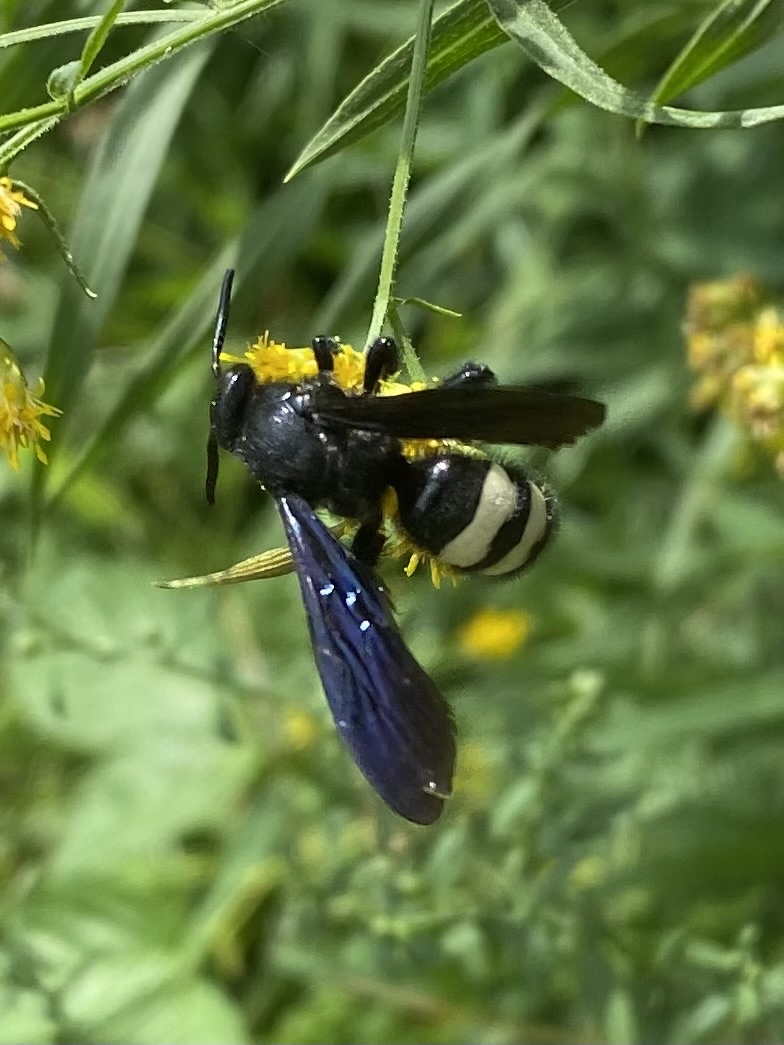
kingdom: Animalia
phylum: Arthropoda
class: Insecta
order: Hymenoptera
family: Scoliidae
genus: Scolia
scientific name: Scolia bicincta
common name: Double-banded scoliid wasp
